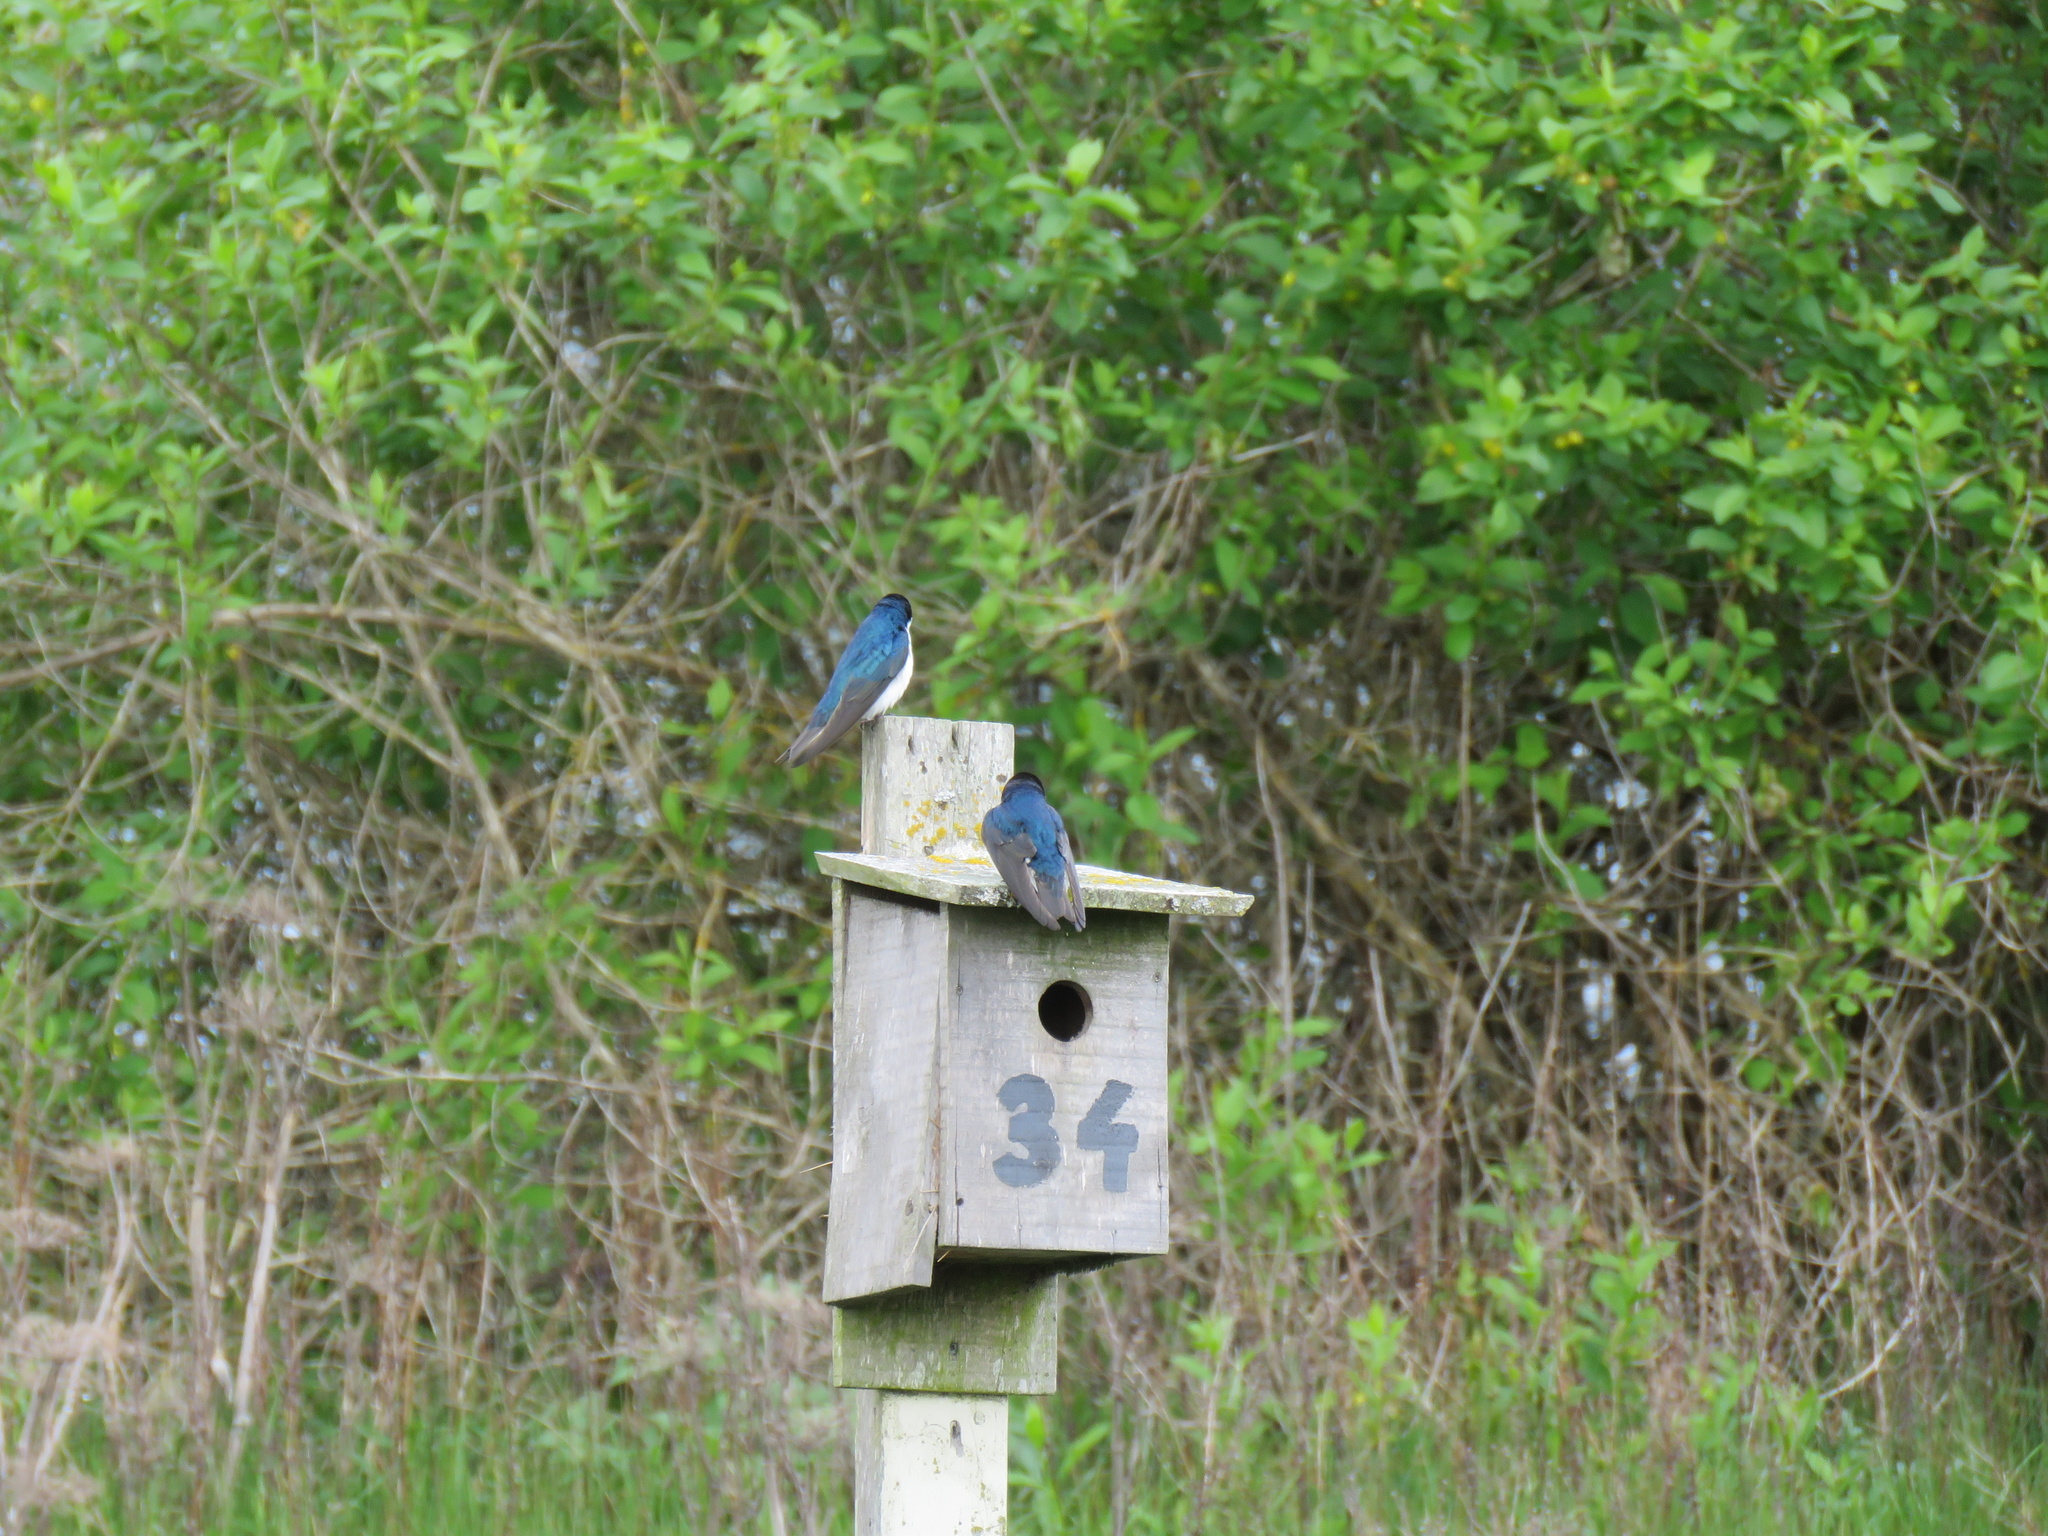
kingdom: Animalia
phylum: Chordata
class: Aves
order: Passeriformes
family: Hirundinidae
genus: Tachycineta
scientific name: Tachycineta bicolor
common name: Tree swallow
